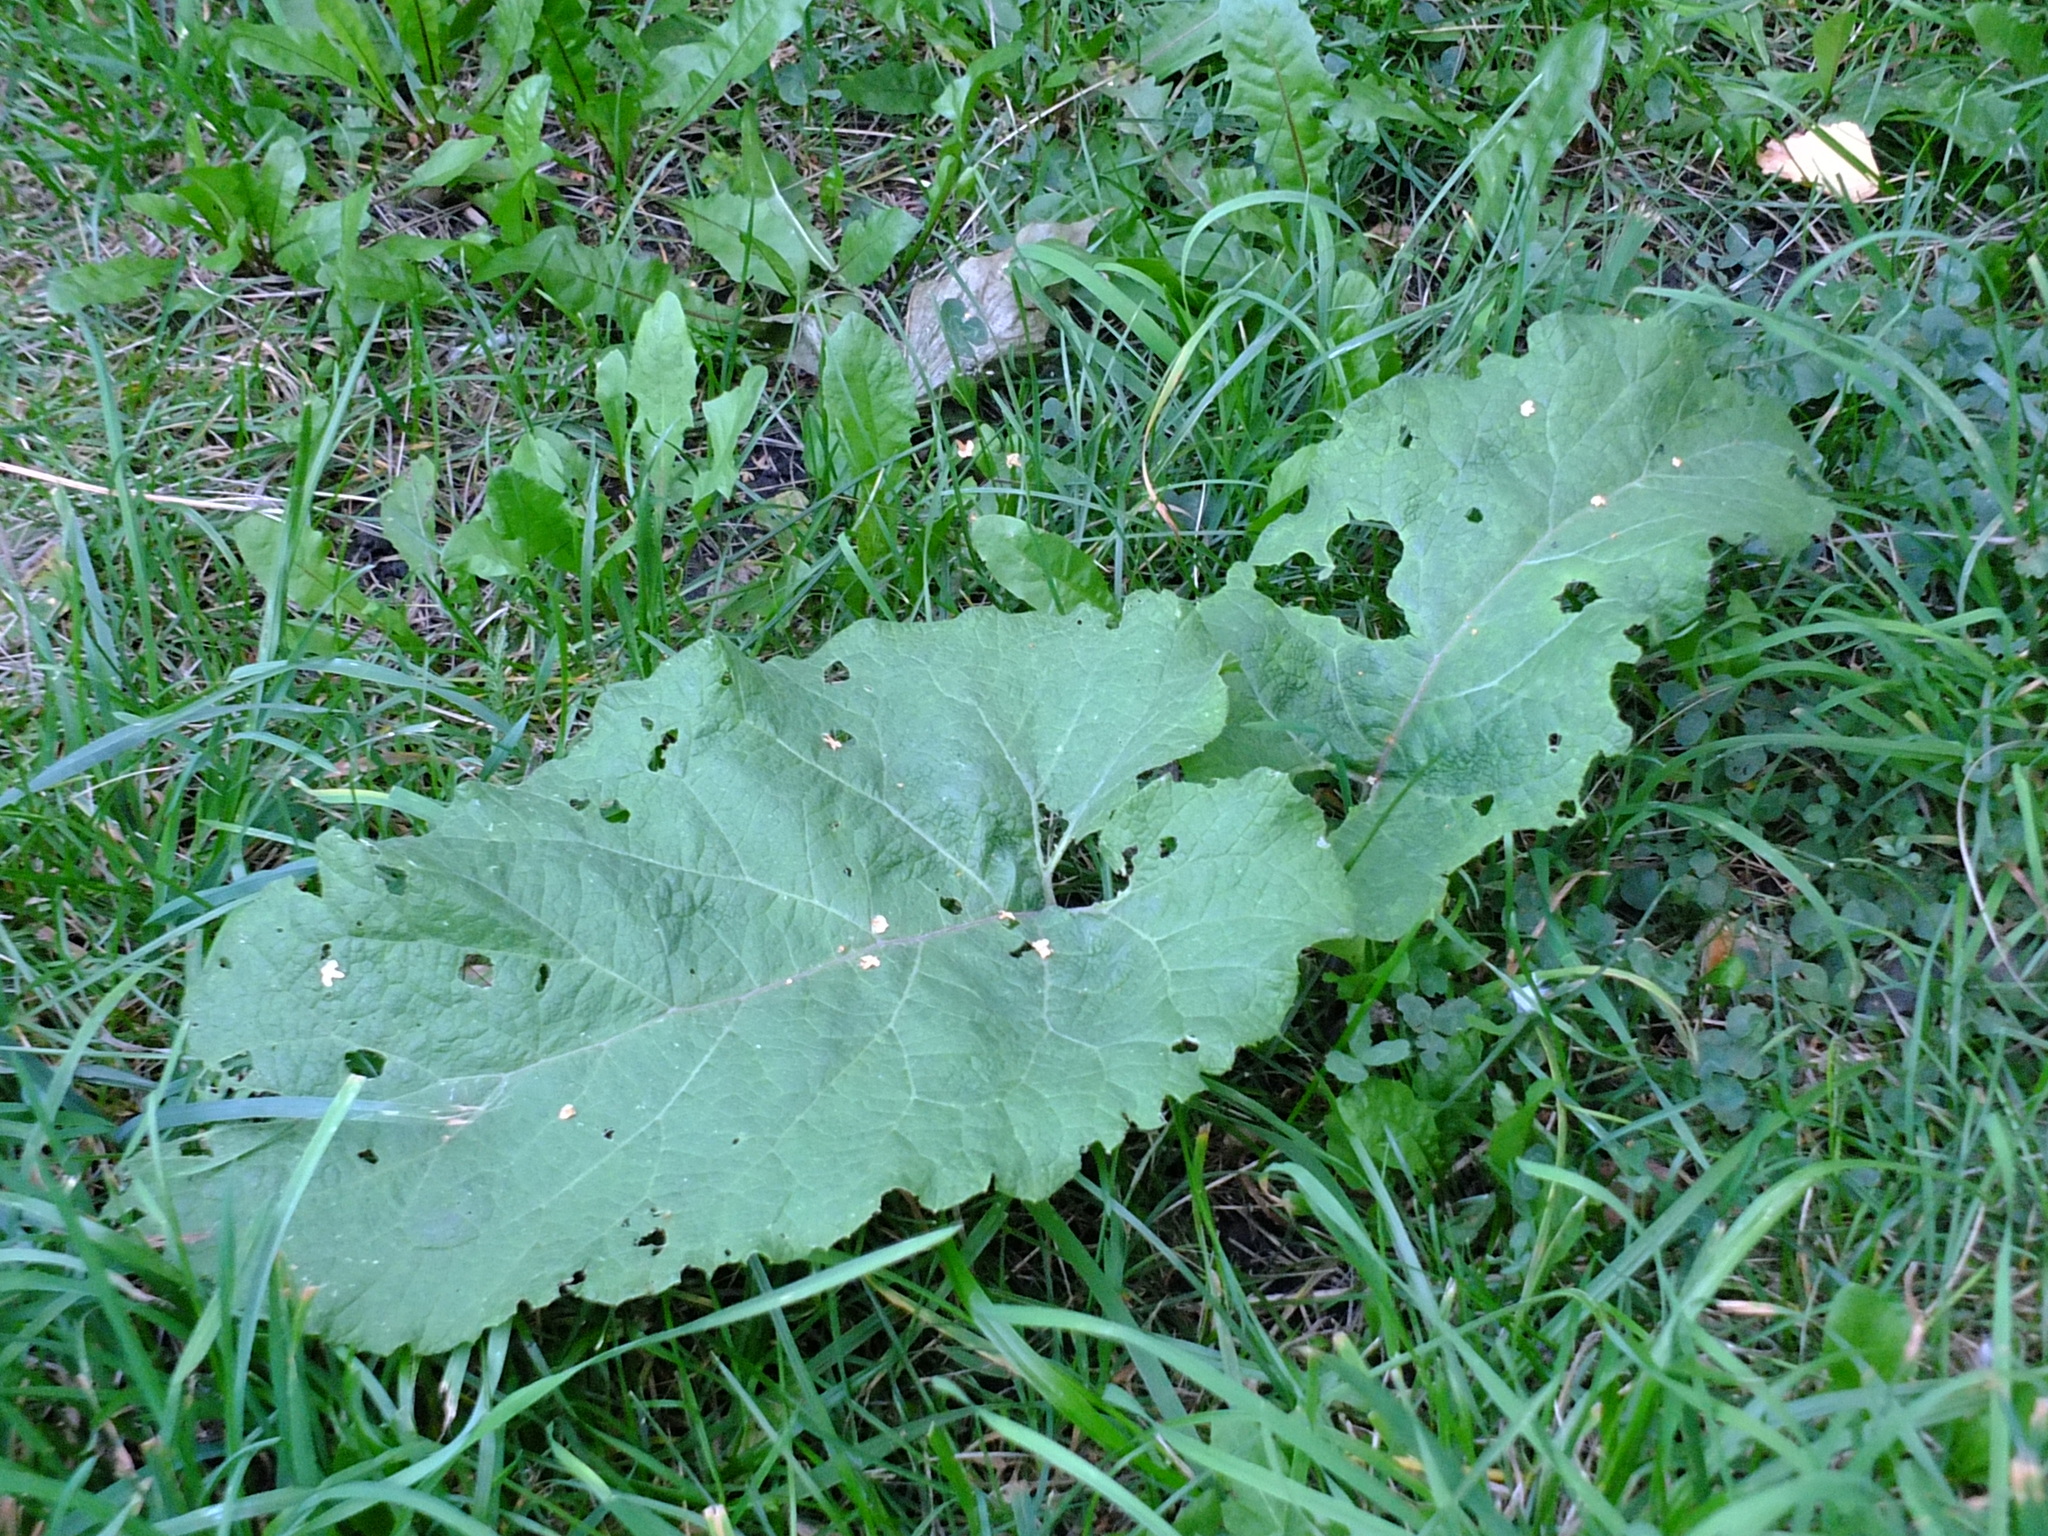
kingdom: Plantae
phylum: Tracheophyta
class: Magnoliopsida
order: Asterales
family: Asteraceae
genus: Arctium
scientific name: Arctium
